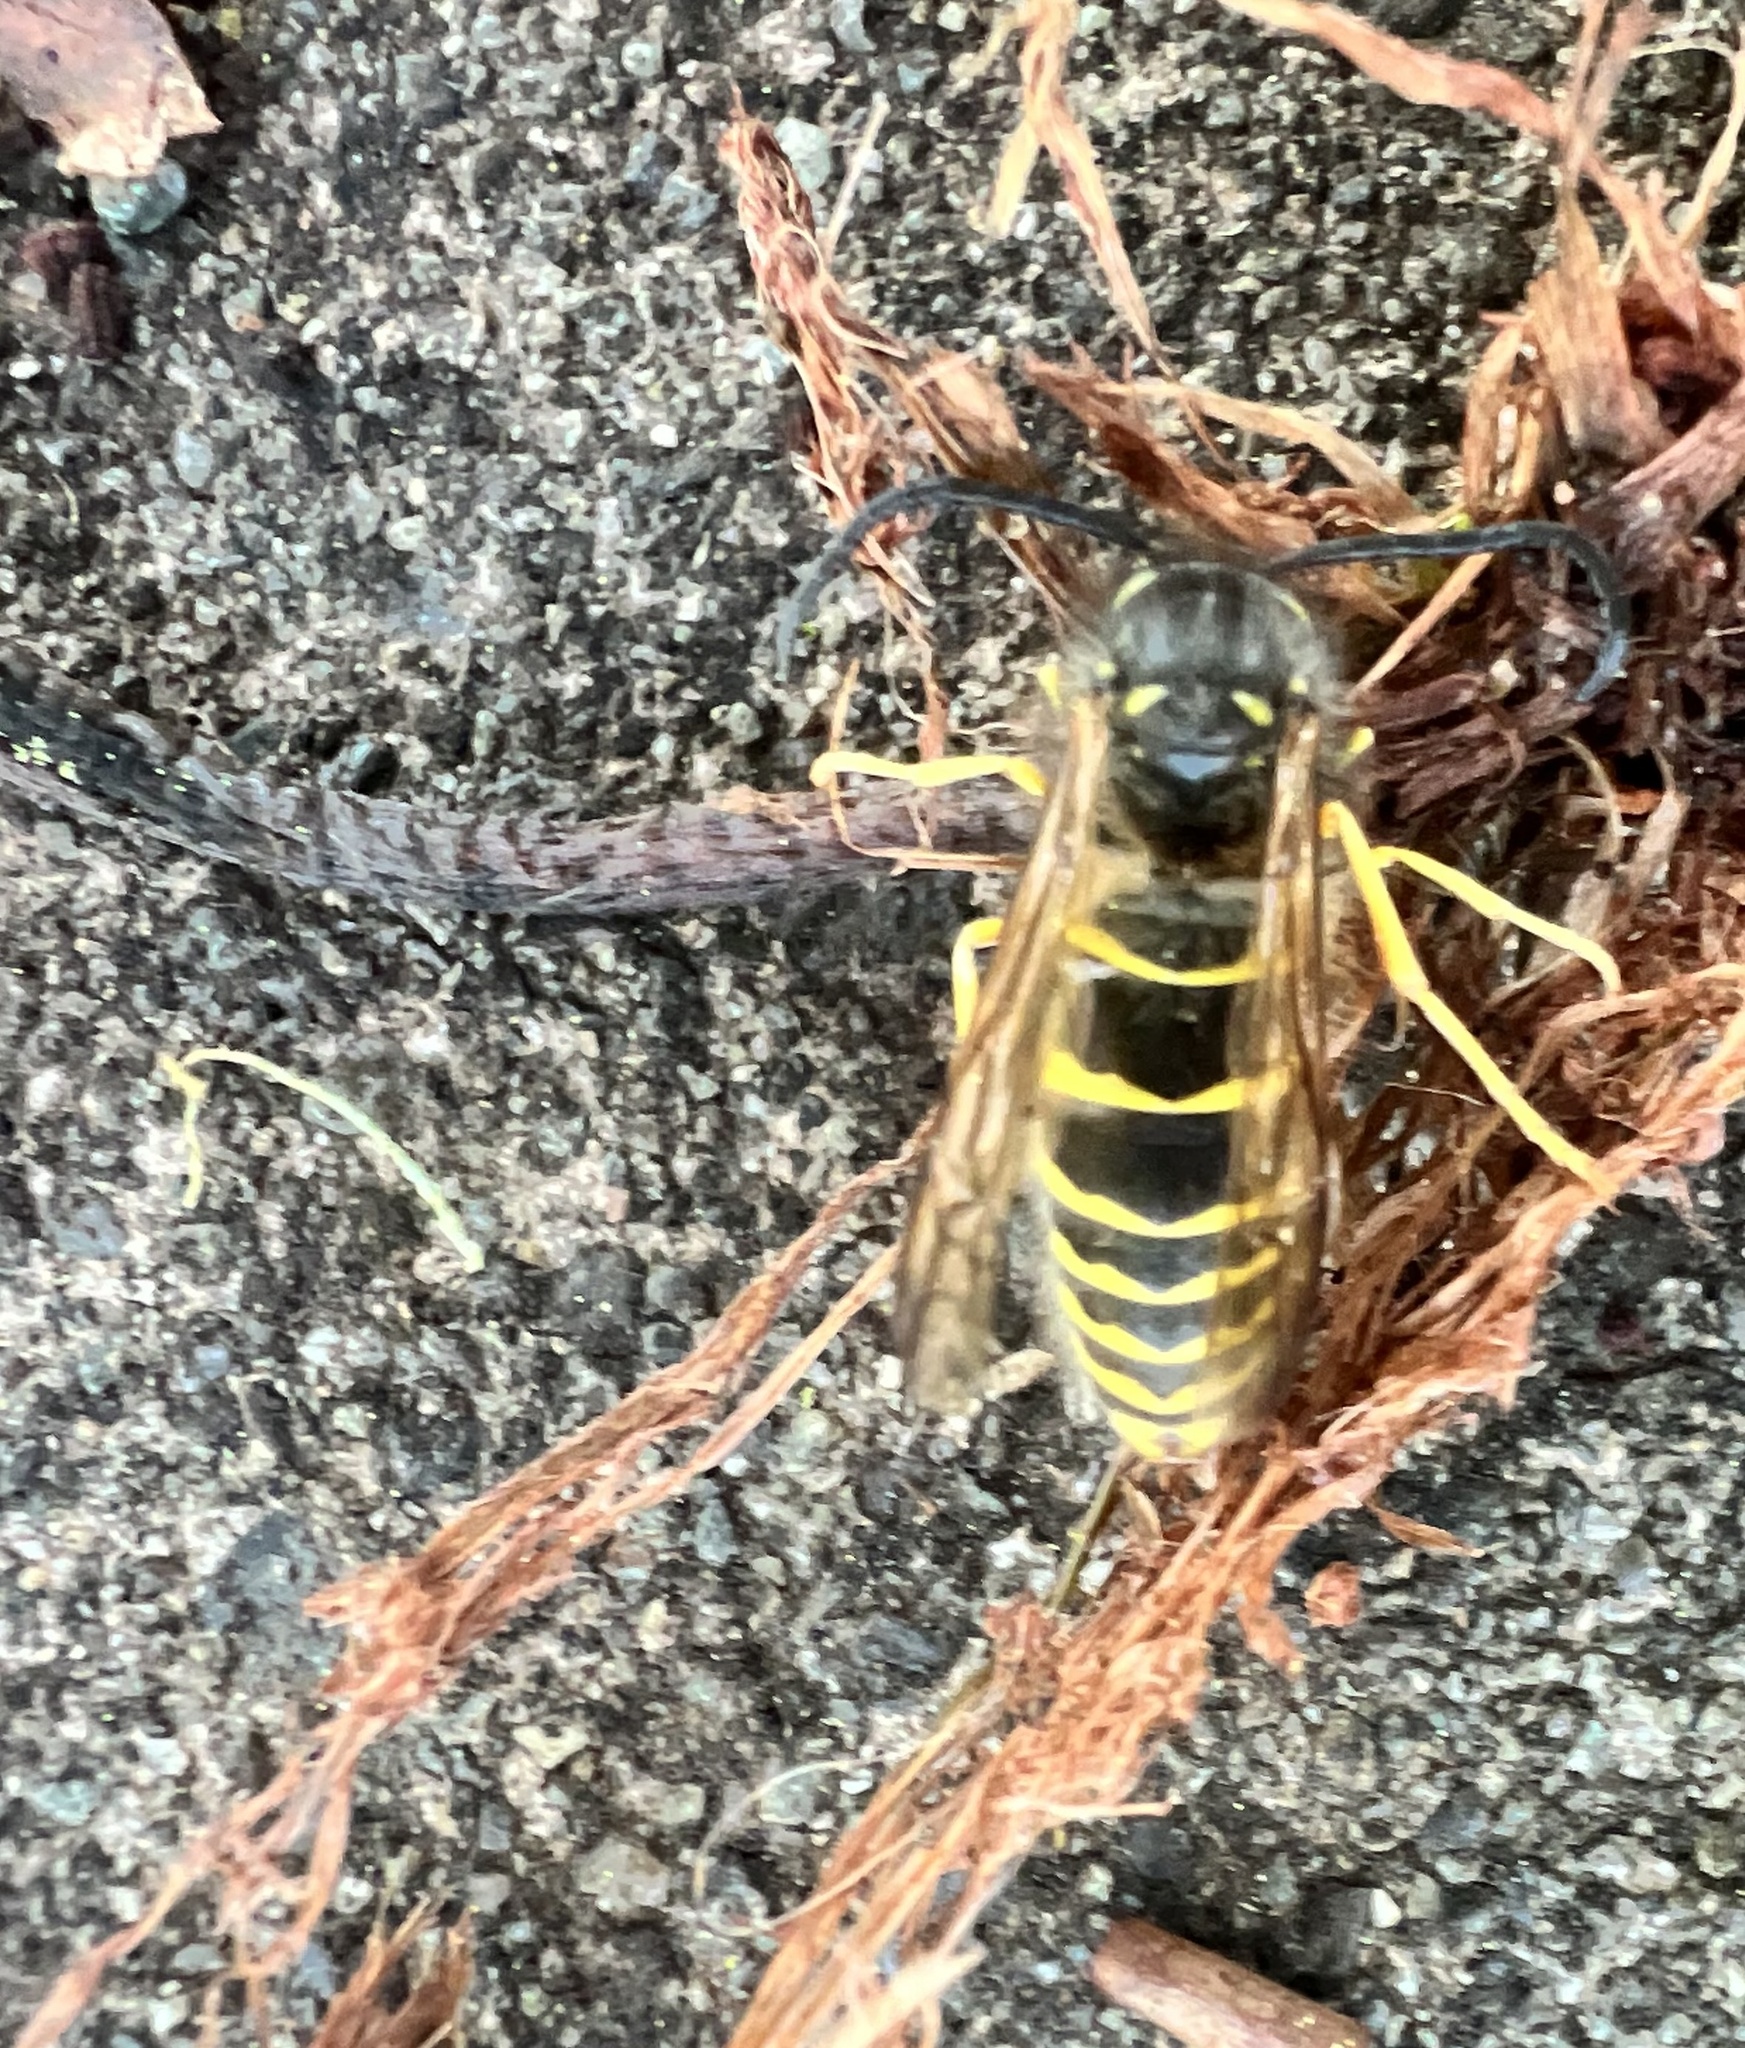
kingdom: Animalia
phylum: Arthropoda
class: Insecta
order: Hymenoptera
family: Vespidae
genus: Vespula
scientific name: Vespula alascensis
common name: Alaska yellowjacket
